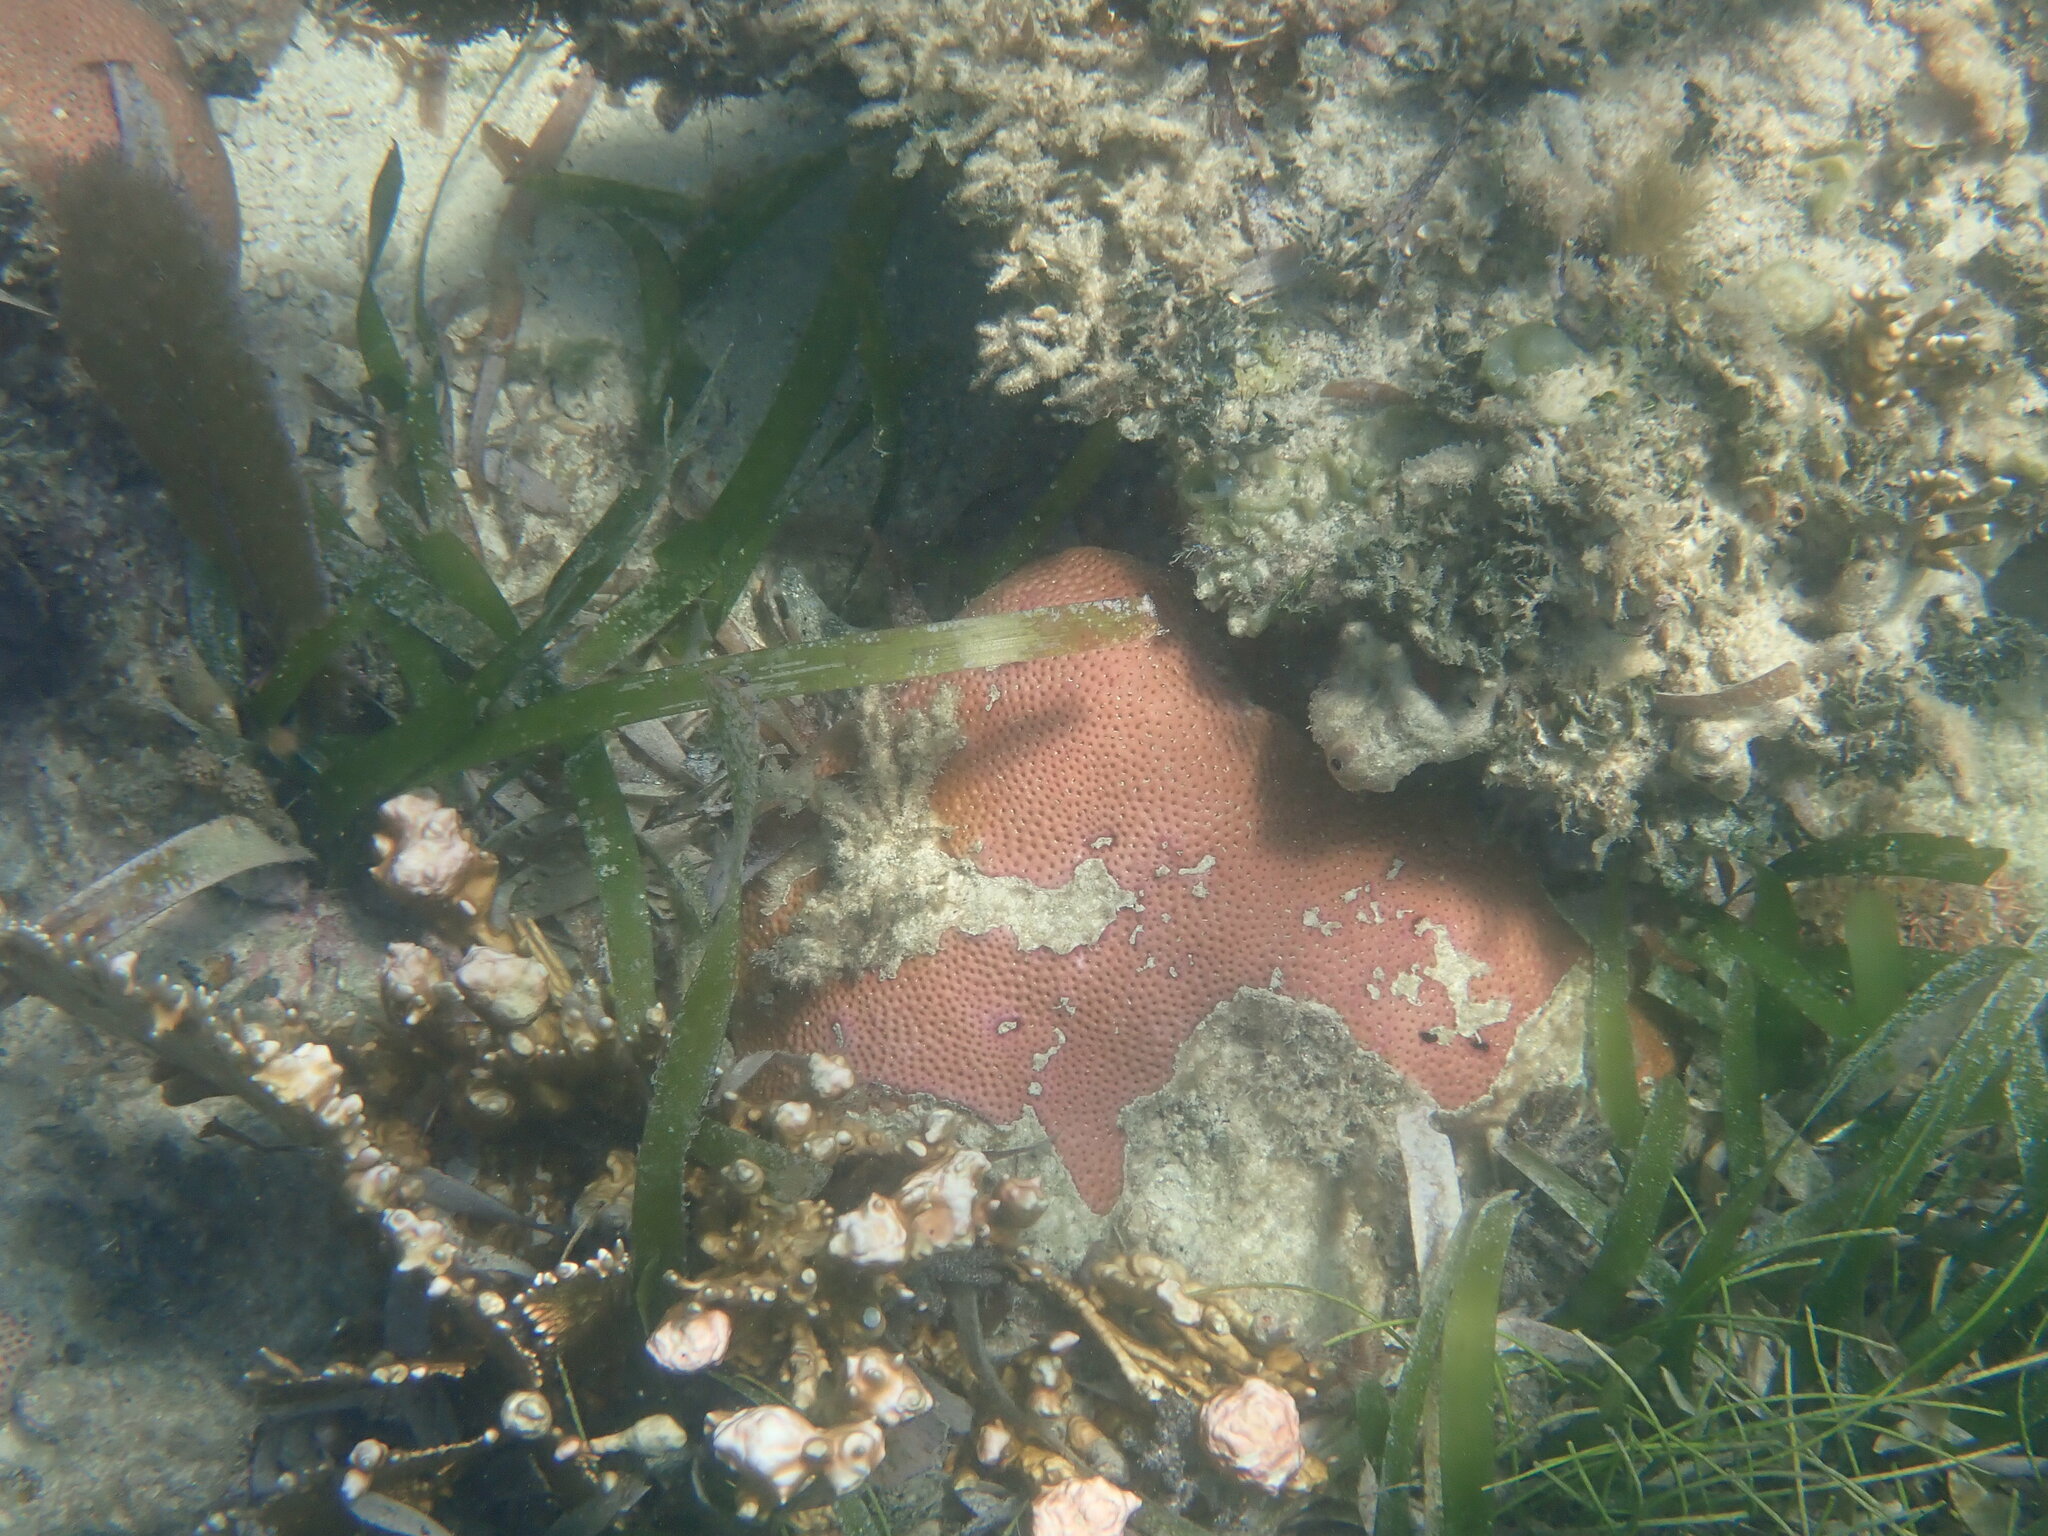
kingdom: Animalia
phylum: Cnidaria
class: Anthozoa
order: Scleractinia
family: Rhizangiidae
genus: Siderastrea
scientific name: Siderastrea siderea
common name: Massive starlet coral
